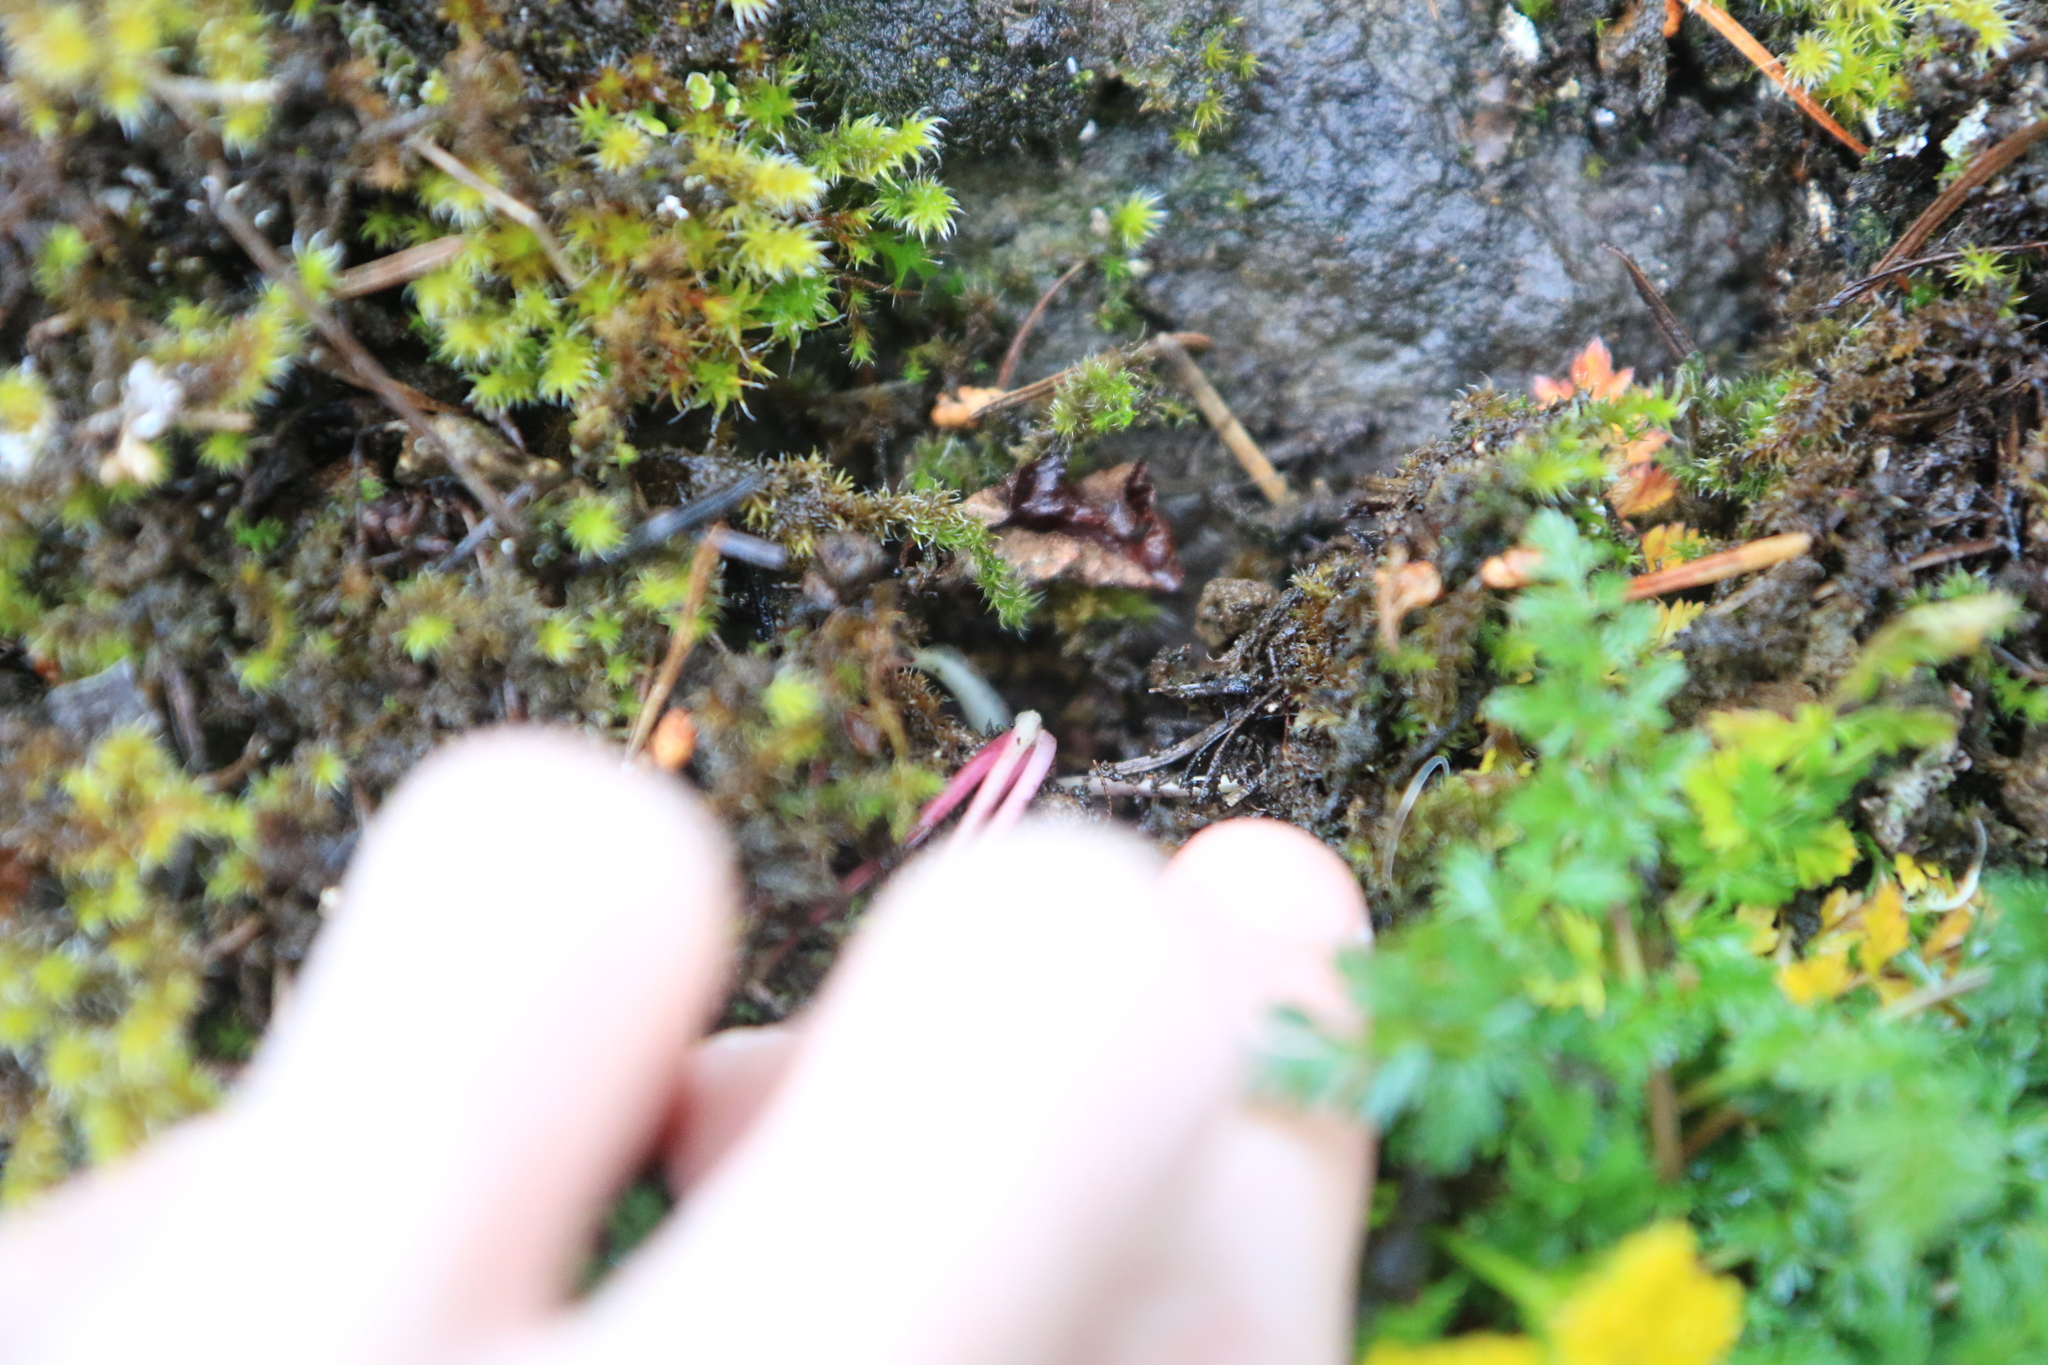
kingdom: Plantae
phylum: Tracheophyta
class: Magnoliopsida
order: Apiales
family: Apiaceae
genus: Lomatium
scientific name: Lomatium hallii
